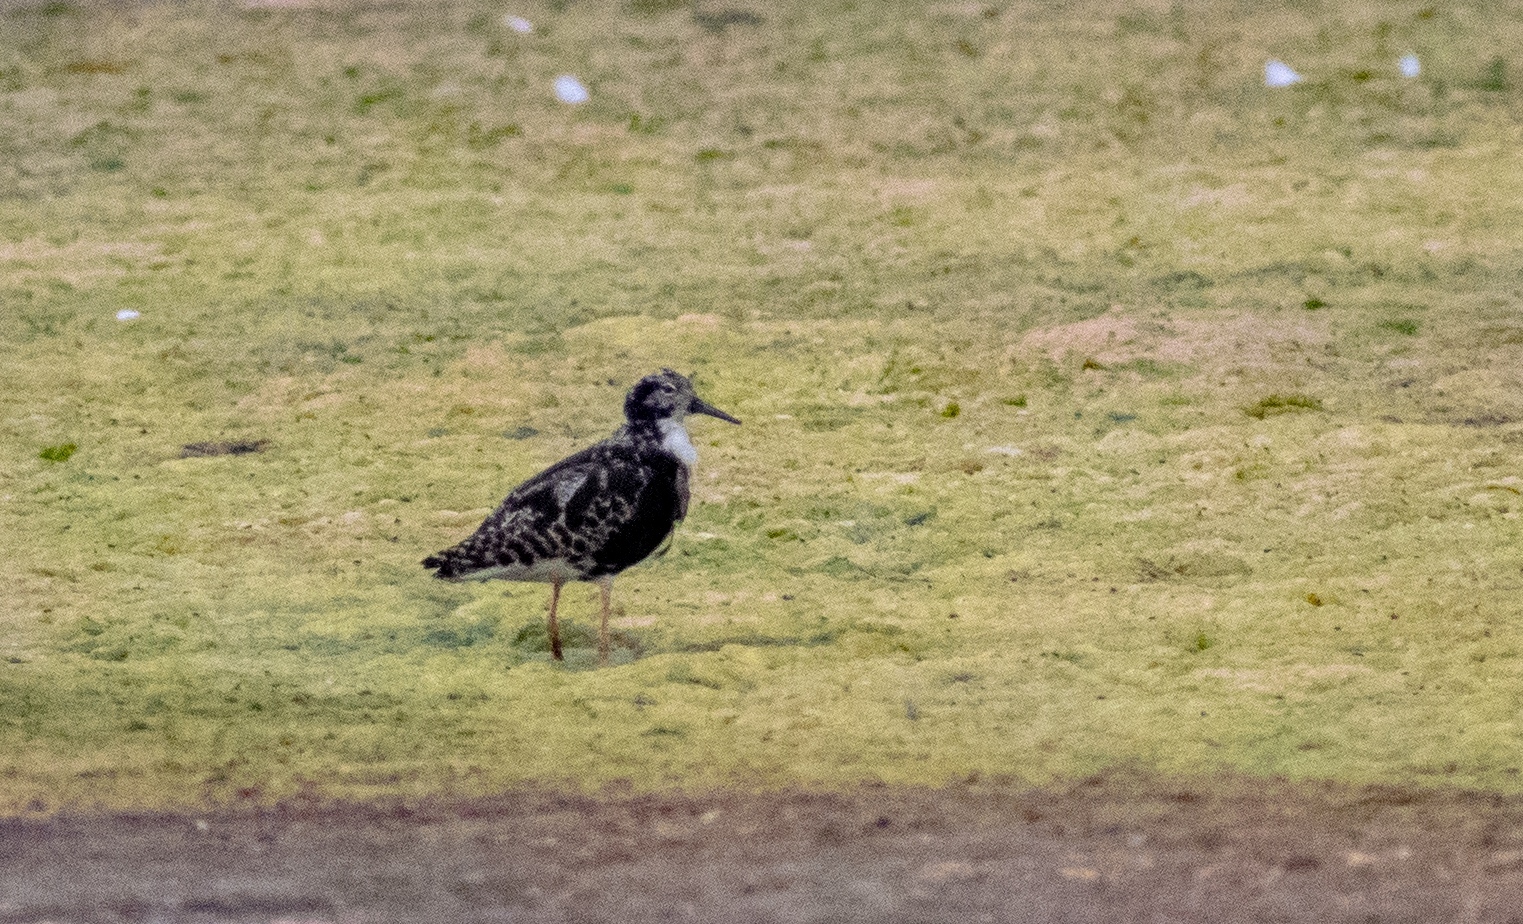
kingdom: Animalia
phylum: Chordata
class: Aves
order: Charadriiformes
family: Scolopacidae
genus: Calidris
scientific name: Calidris pugnax
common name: Ruff
